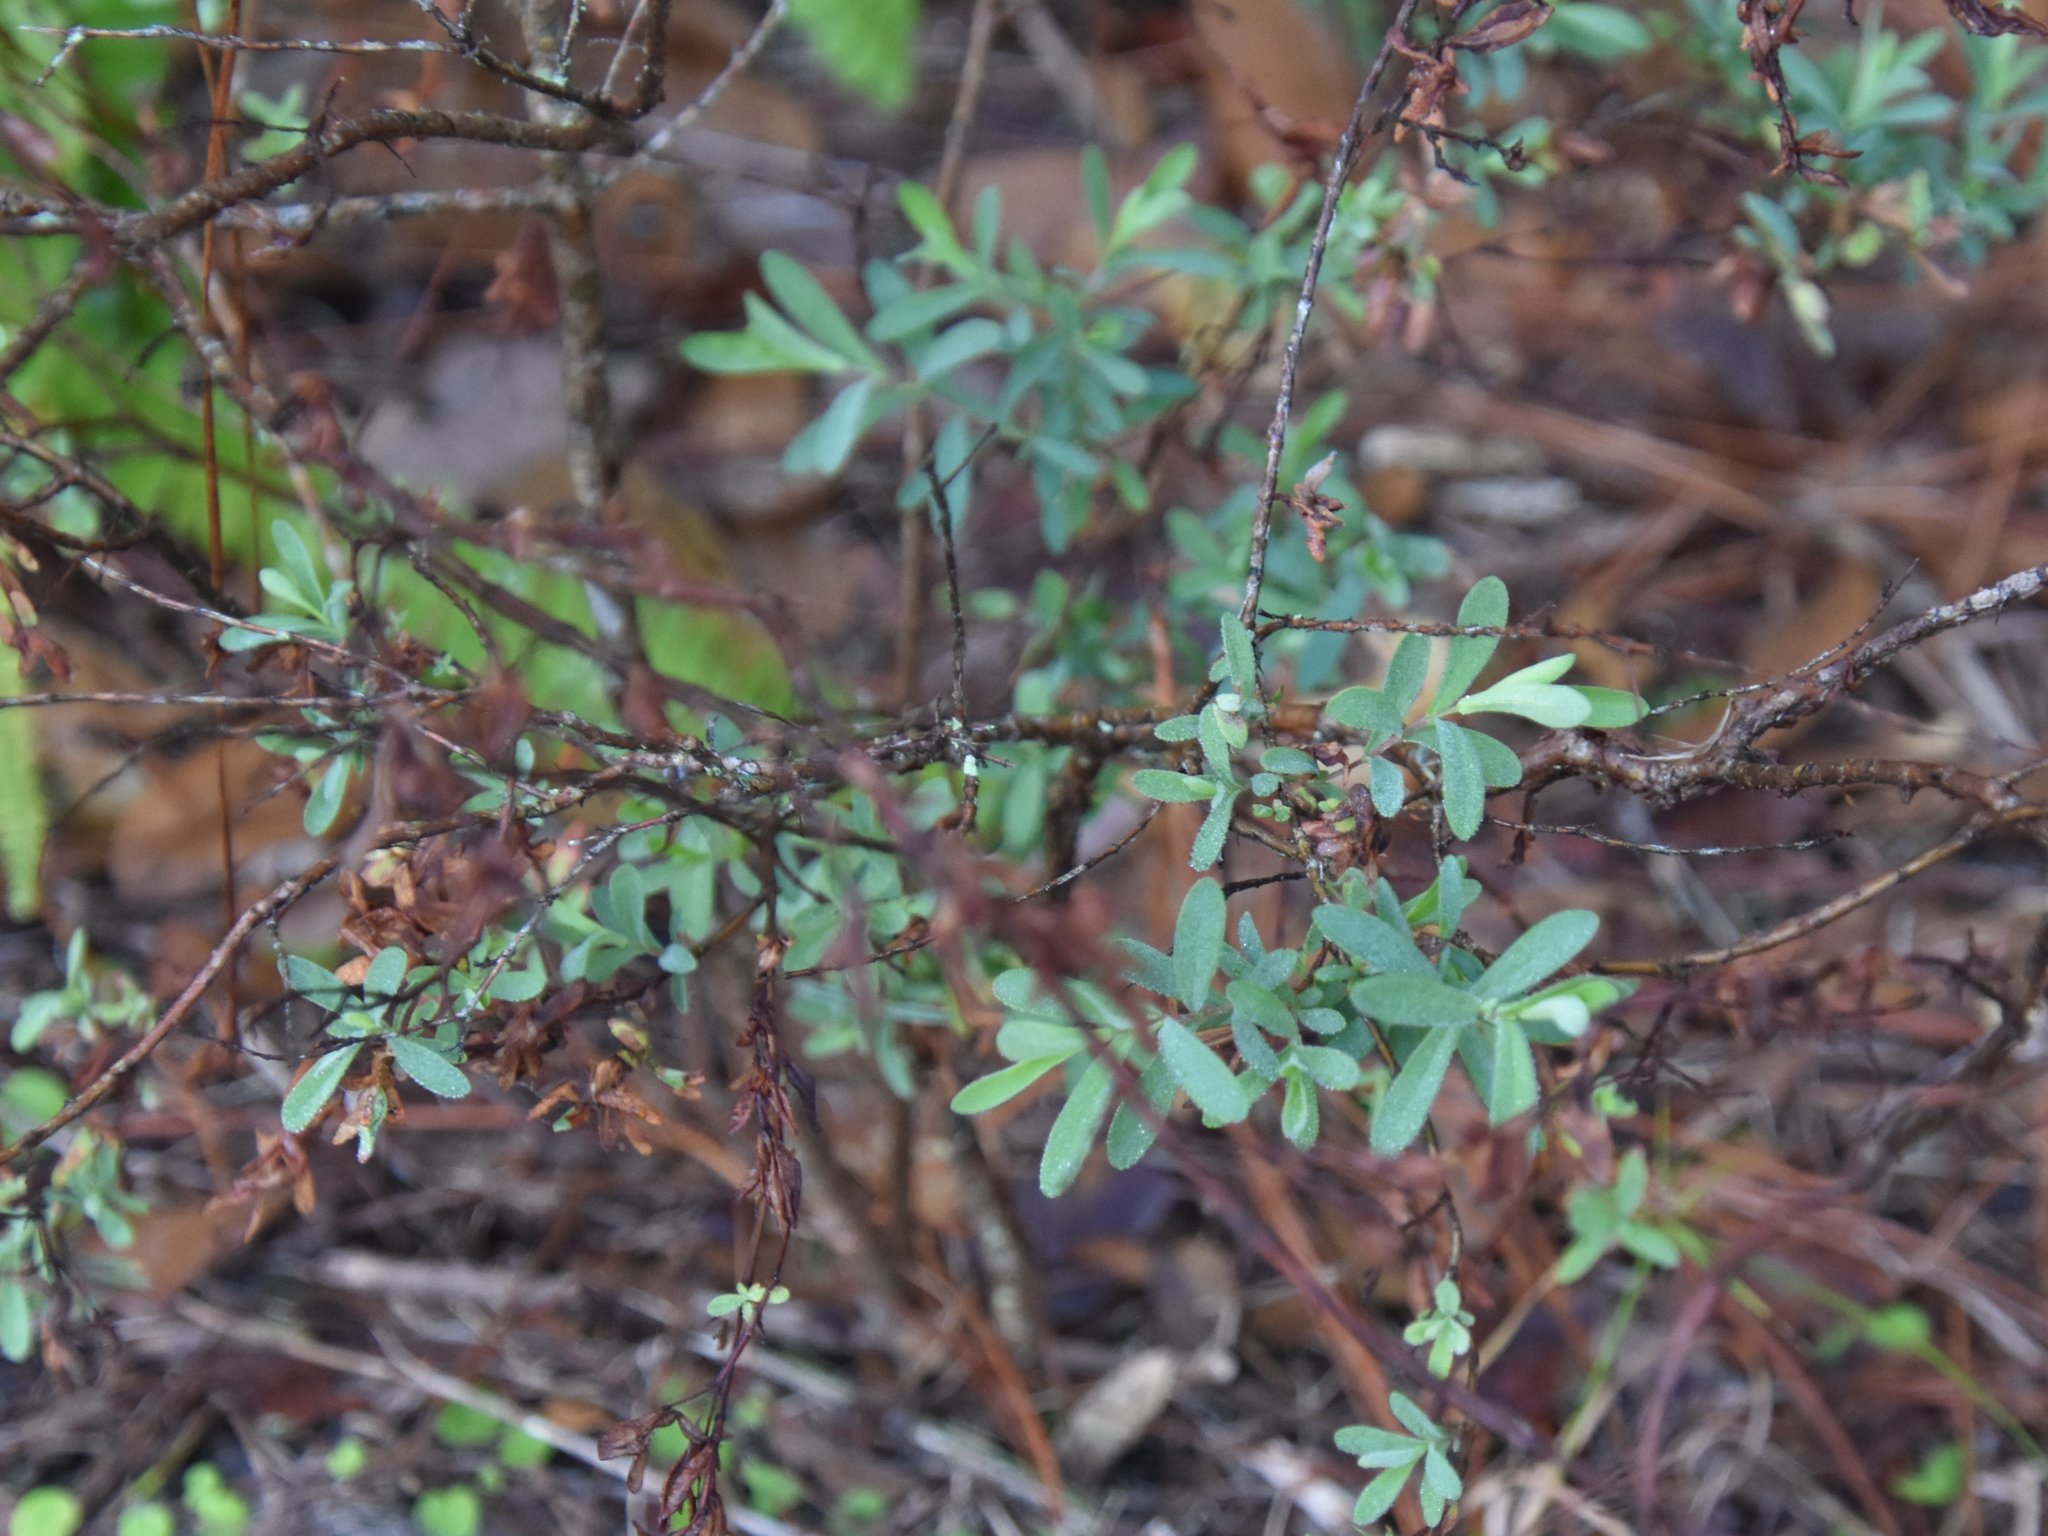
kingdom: Plantae
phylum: Tracheophyta
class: Magnoliopsida
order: Malpighiales
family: Hypericaceae
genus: Hypericum
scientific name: Hypericum hypericoides
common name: St. andrew's cross
